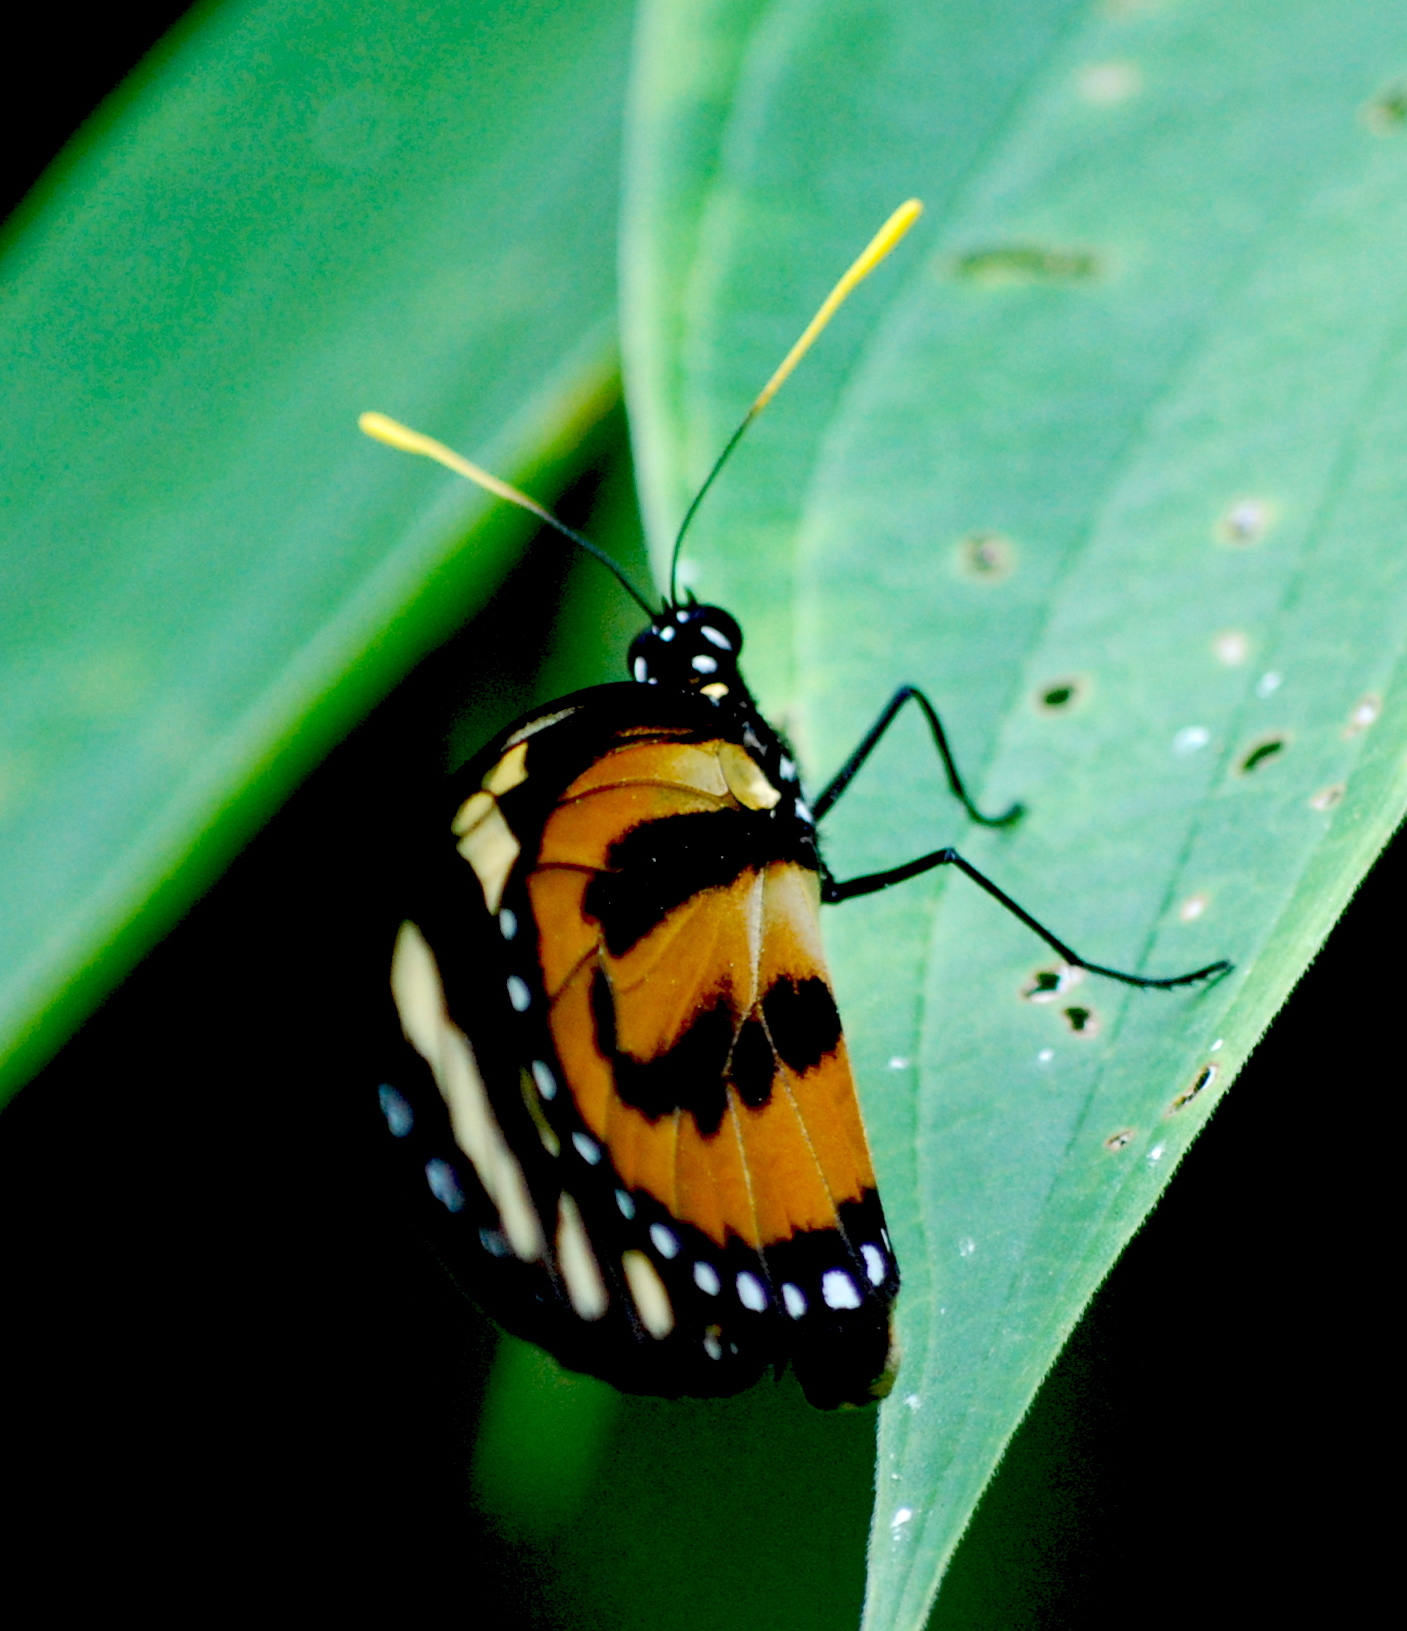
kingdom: Animalia
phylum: Arthropoda
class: Insecta
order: Lepidoptera
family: Nymphalidae
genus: Lycorea
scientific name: Lycorea cleobaea
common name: Tiger mimic-queen
